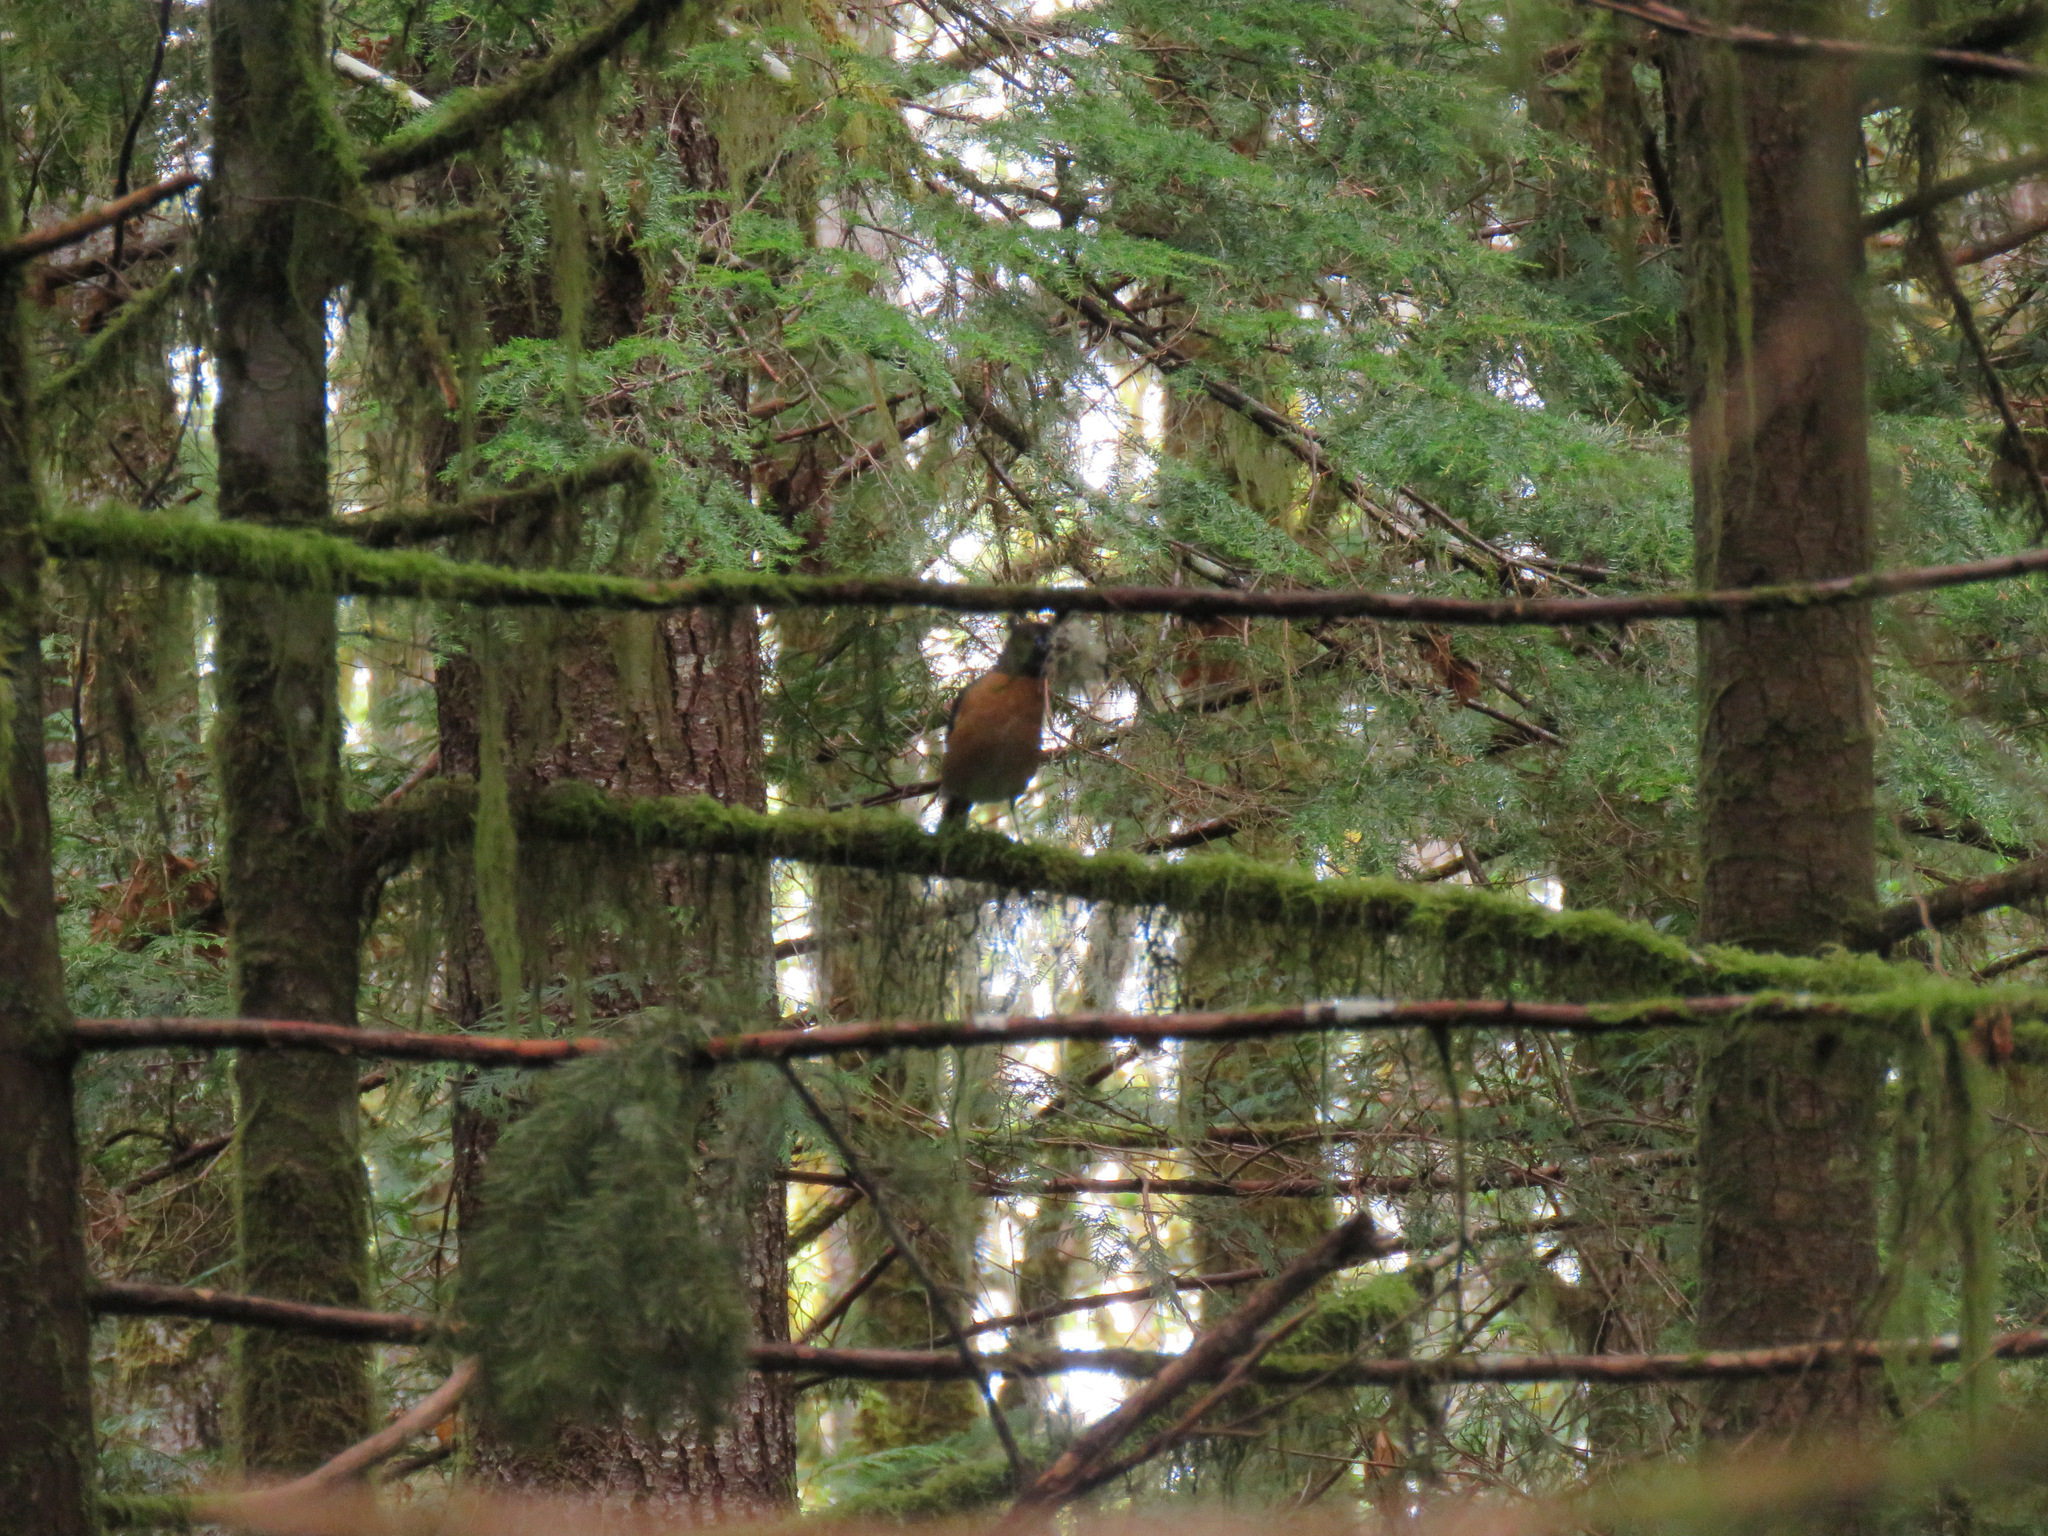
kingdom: Animalia
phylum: Chordata
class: Aves
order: Passeriformes
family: Turdidae
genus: Turdus
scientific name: Turdus migratorius
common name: American robin
